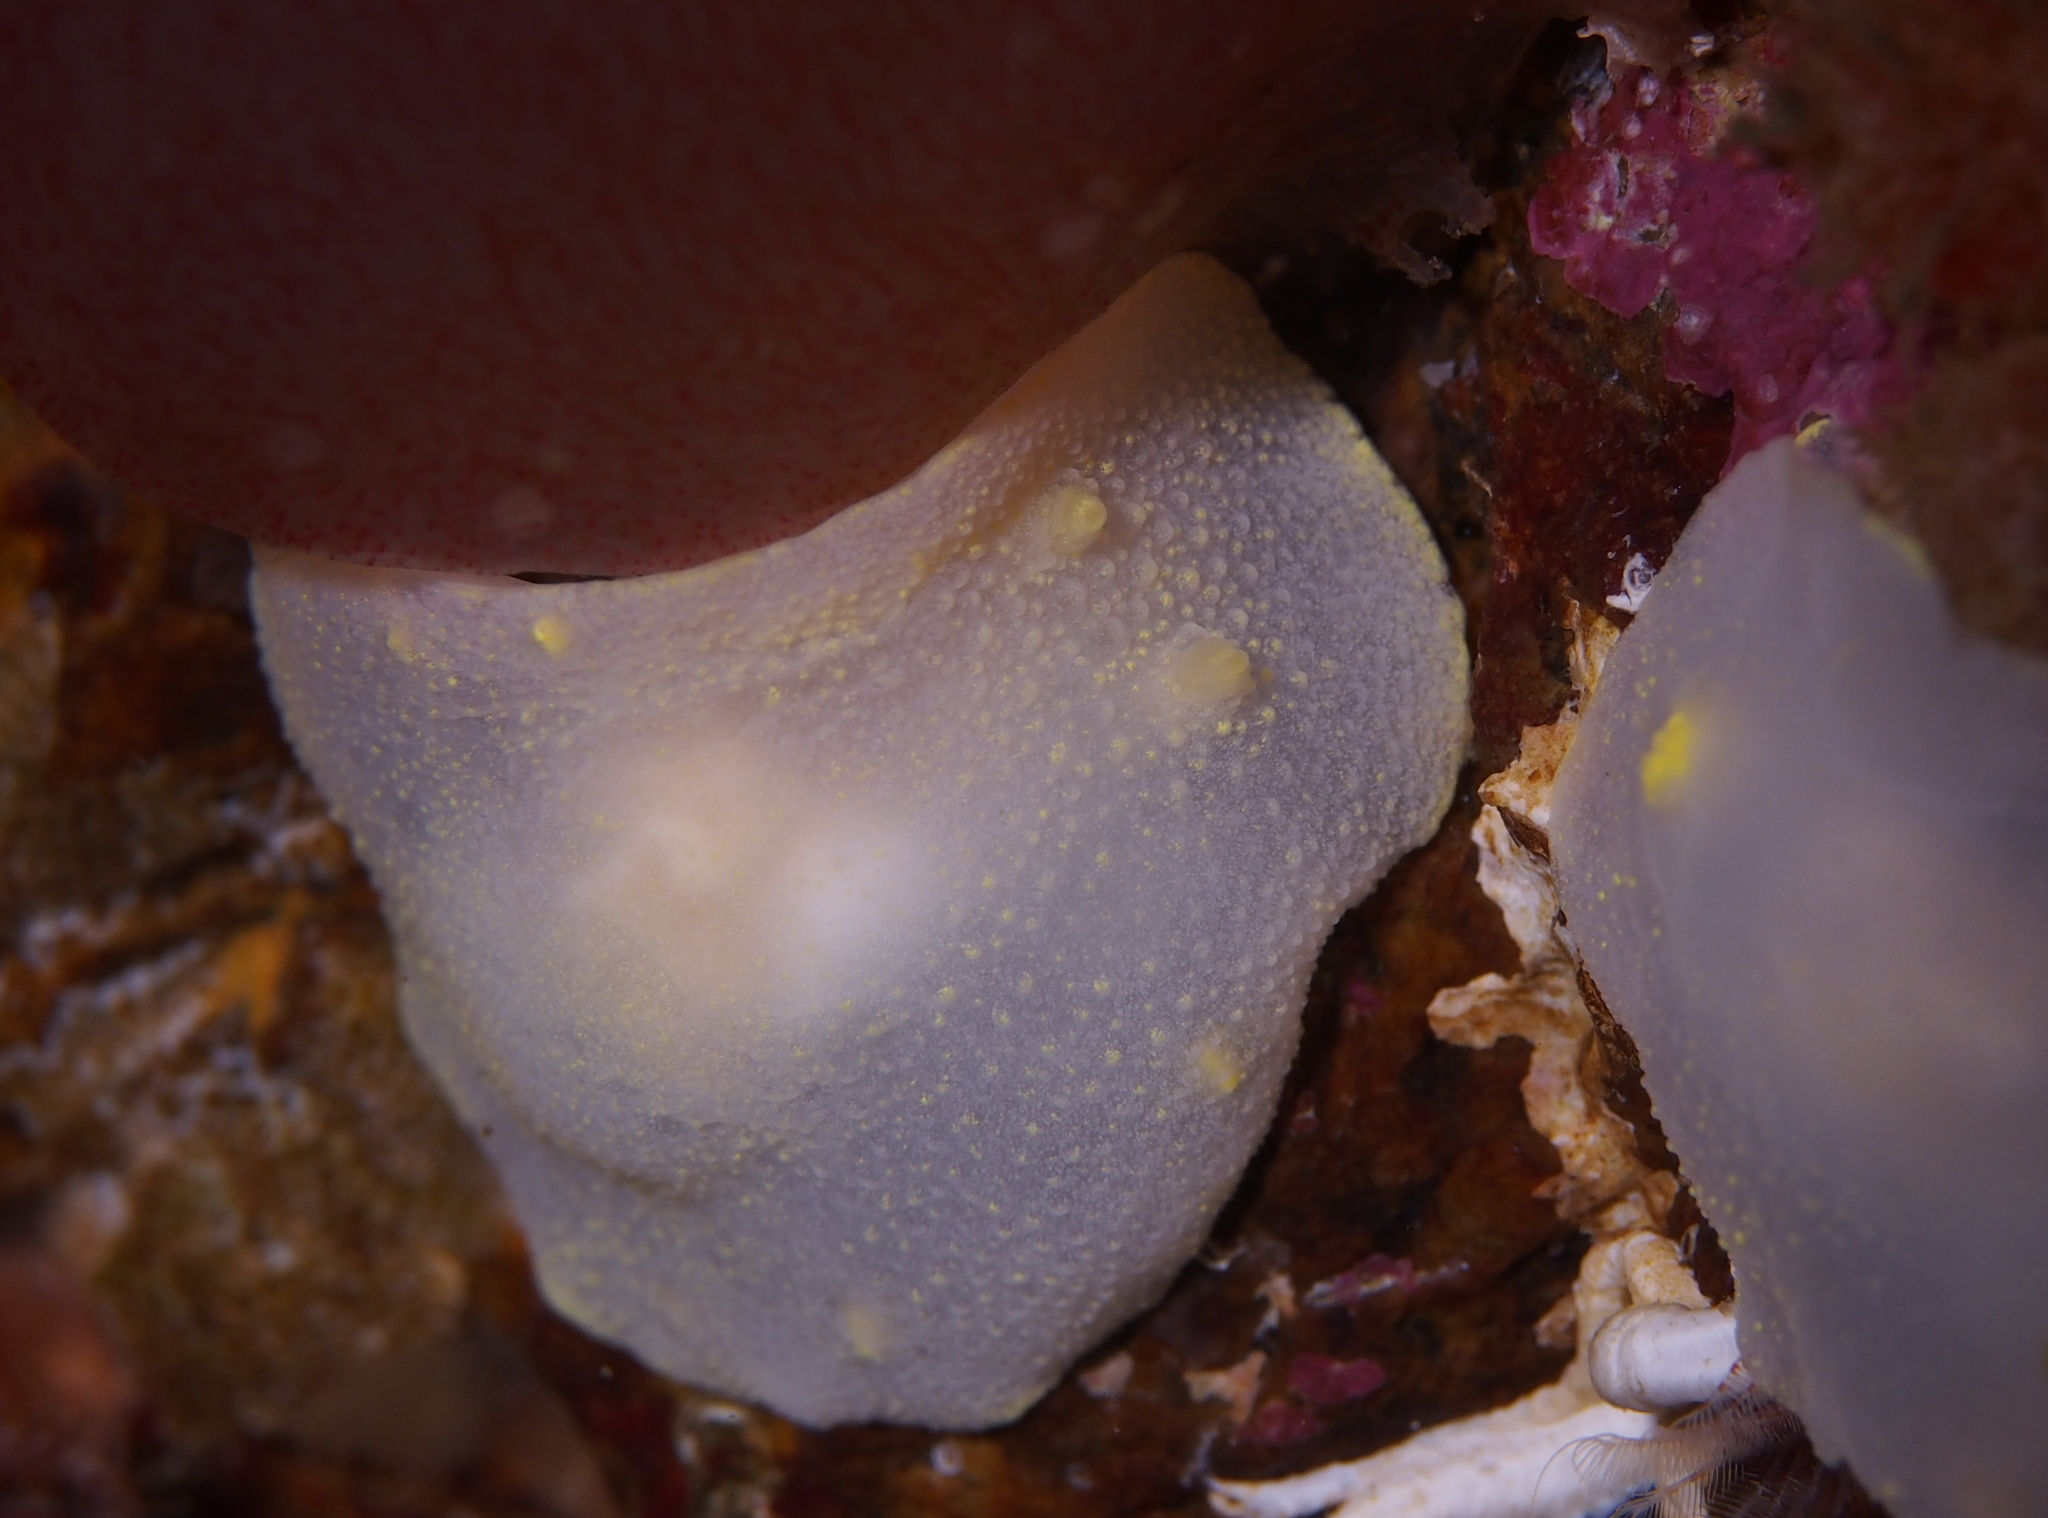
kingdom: Animalia
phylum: Mollusca
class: Gastropoda
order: Nudibranchia
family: Cadlinidae
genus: Cadlina
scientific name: Cadlina laevis
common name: White atlantic cadlina
